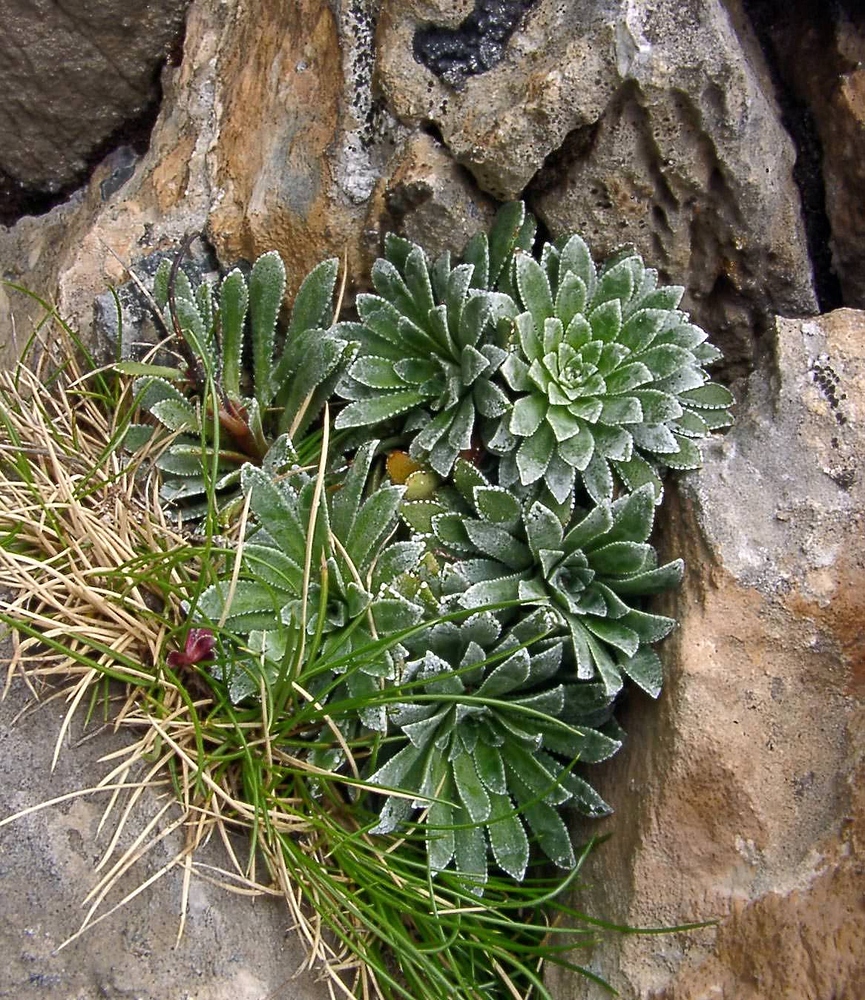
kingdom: Plantae
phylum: Tracheophyta
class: Magnoliopsida
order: Saxifragales
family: Saxifragaceae
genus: Saxifraga
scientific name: Saxifraga longifolia
